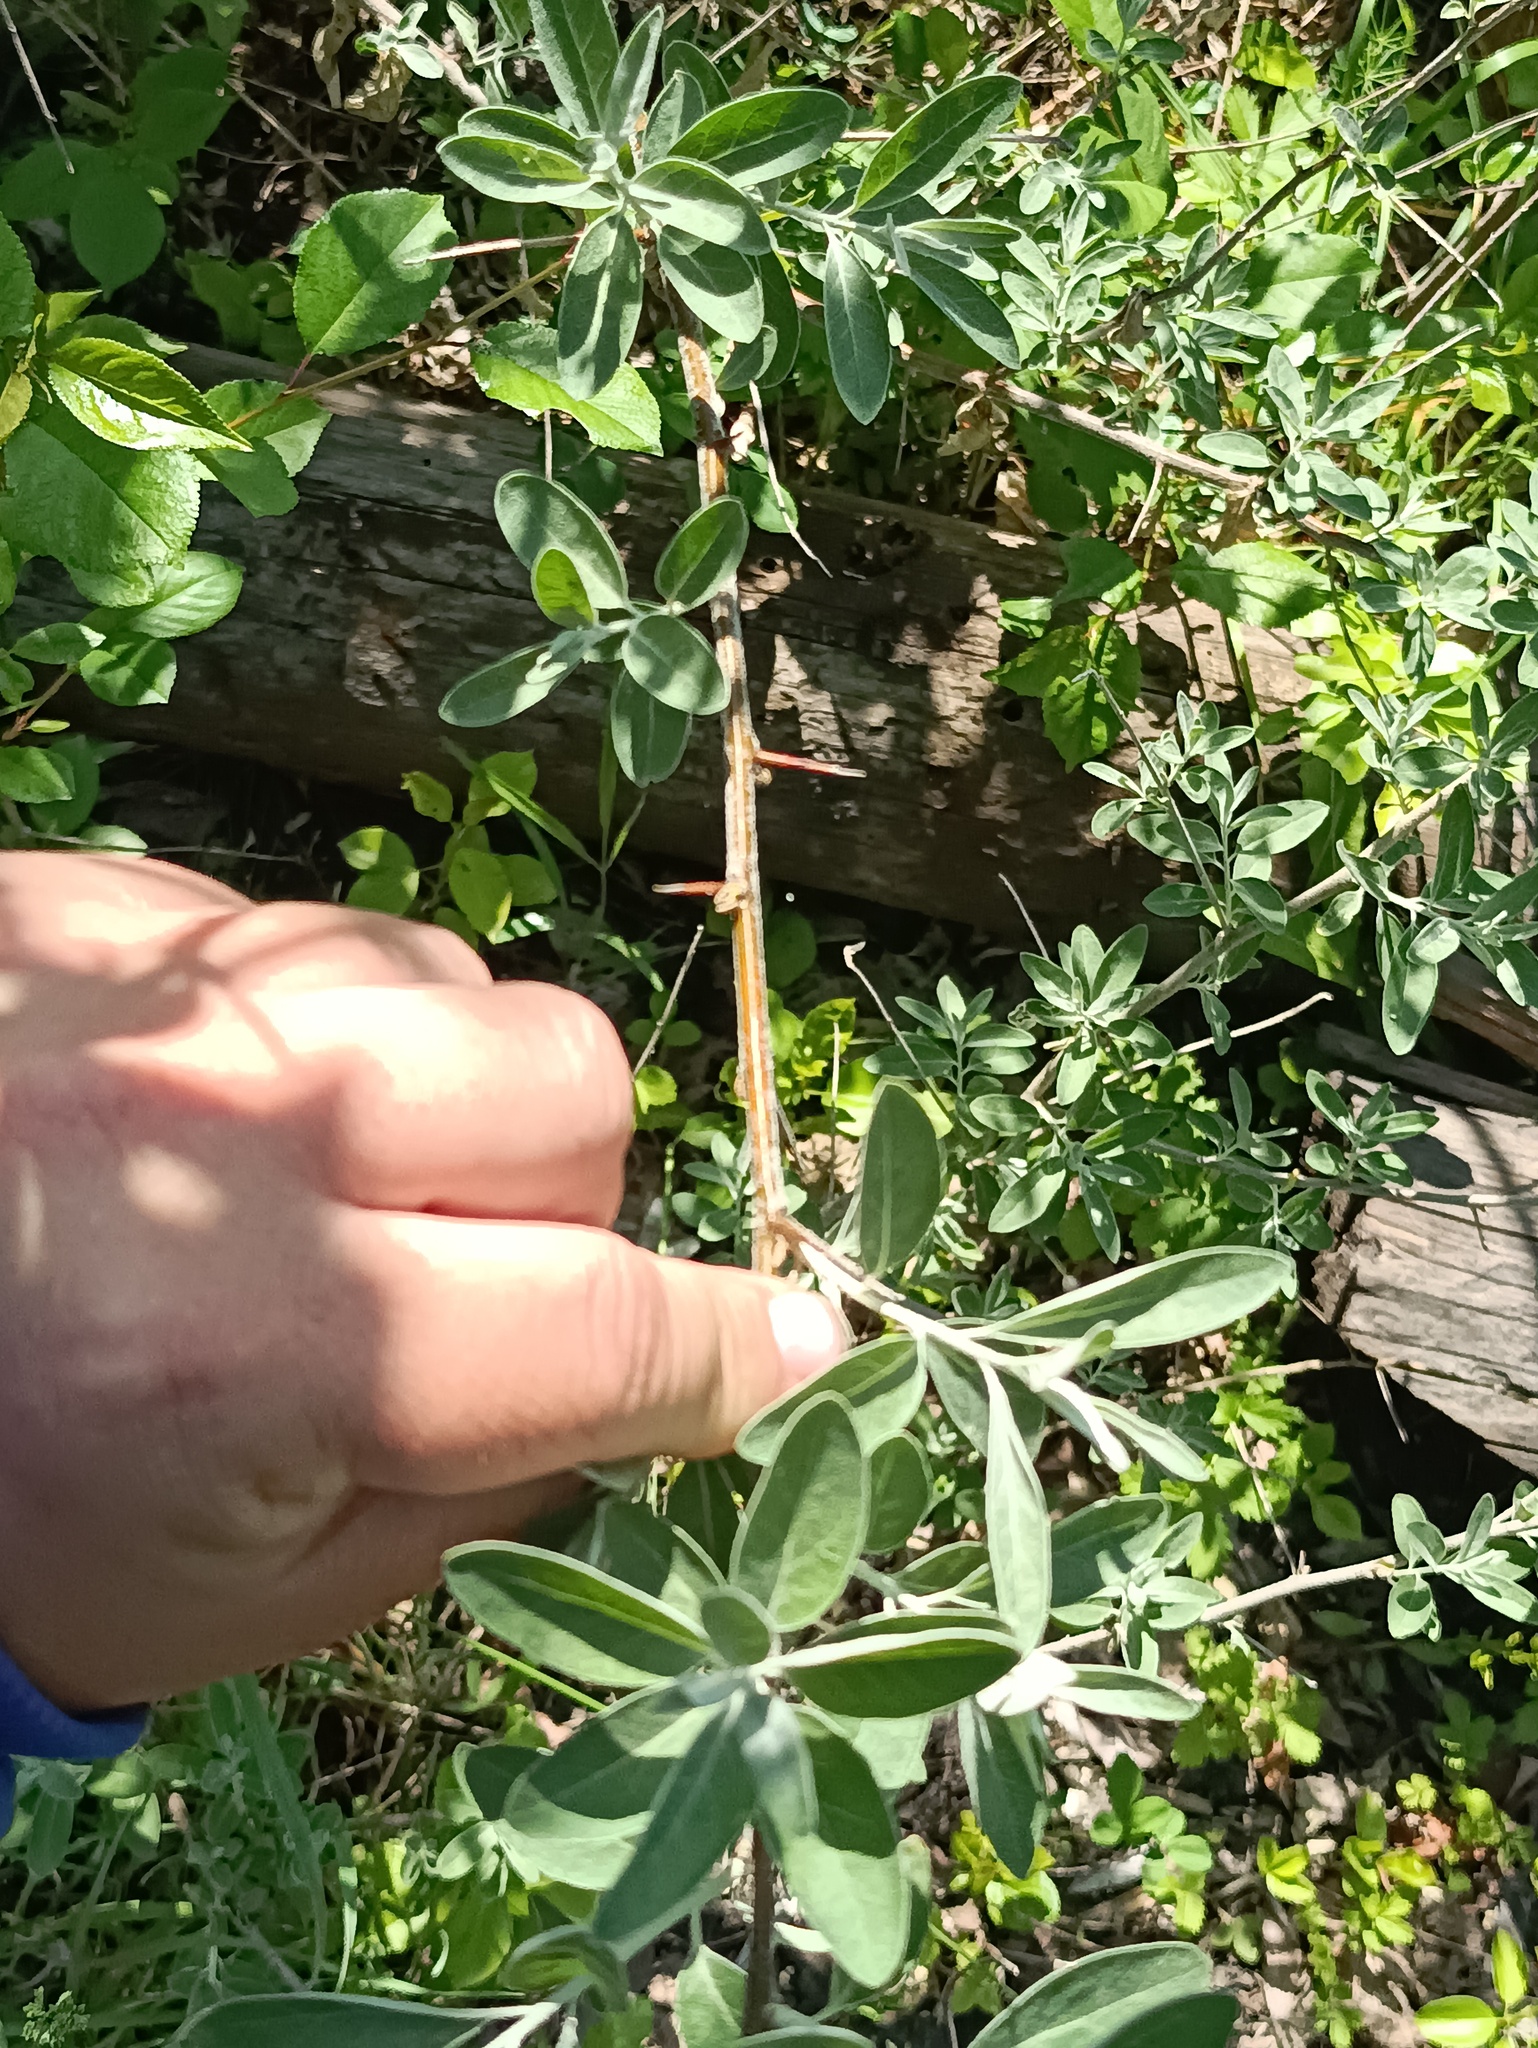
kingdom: Plantae
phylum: Tracheophyta
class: Magnoliopsida
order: Rosales
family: Elaeagnaceae
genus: Elaeagnus
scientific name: Elaeagnus angustifolia
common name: Russian olive
